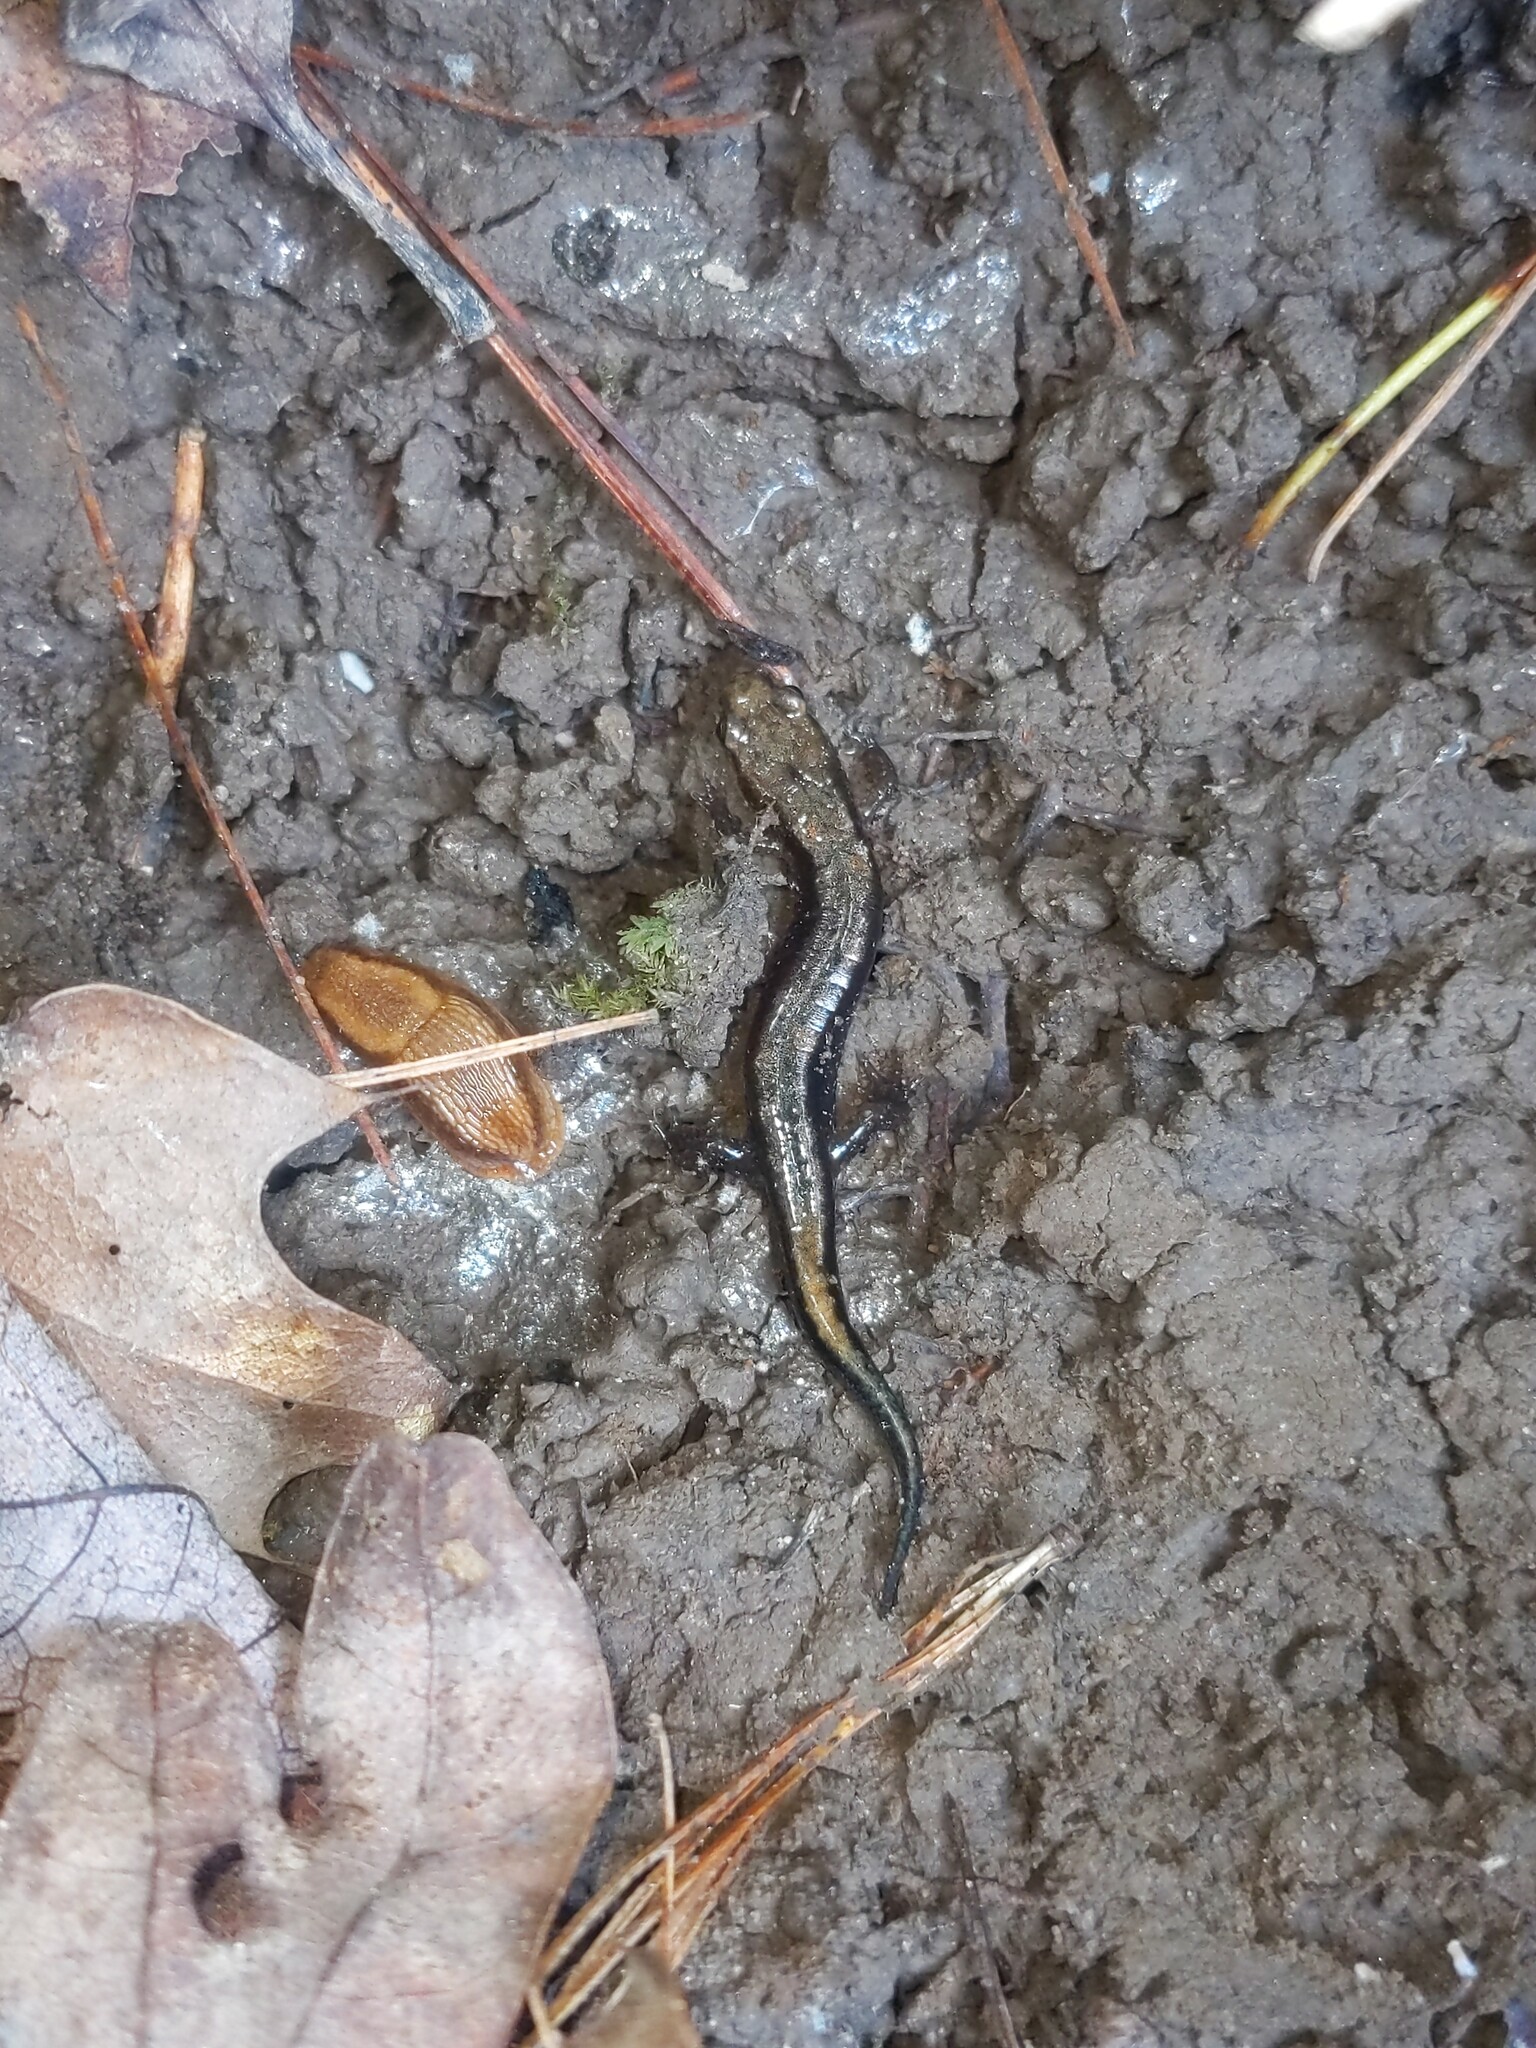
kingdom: Animalia
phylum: Chordata
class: Amphibia
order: Caudata
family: Plethodontidae
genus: Desmognathus
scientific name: Desmognathus ochrophaeus
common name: Allegheny mountain dusky salamander
